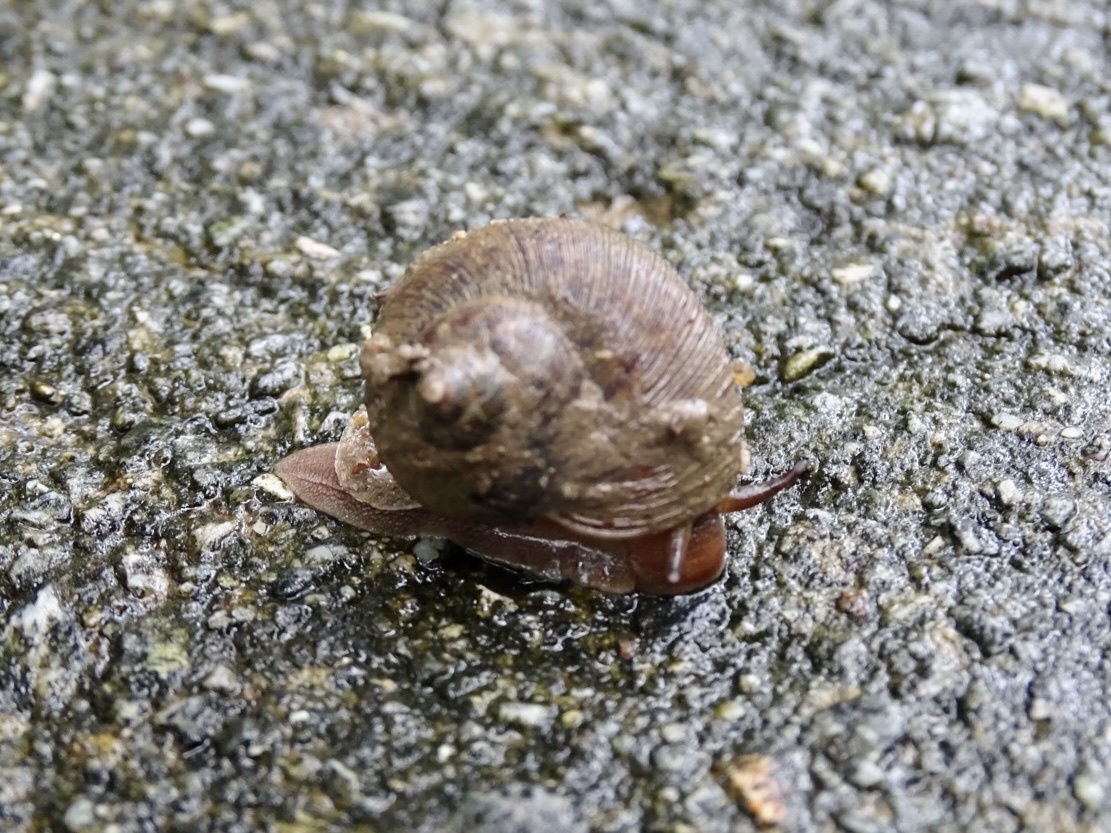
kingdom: Animalia
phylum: Mollusca
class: Gastropoda
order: Architaenioglossa
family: Cyclophoridae
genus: Cyclophorus
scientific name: Cyclophorus punctatus
